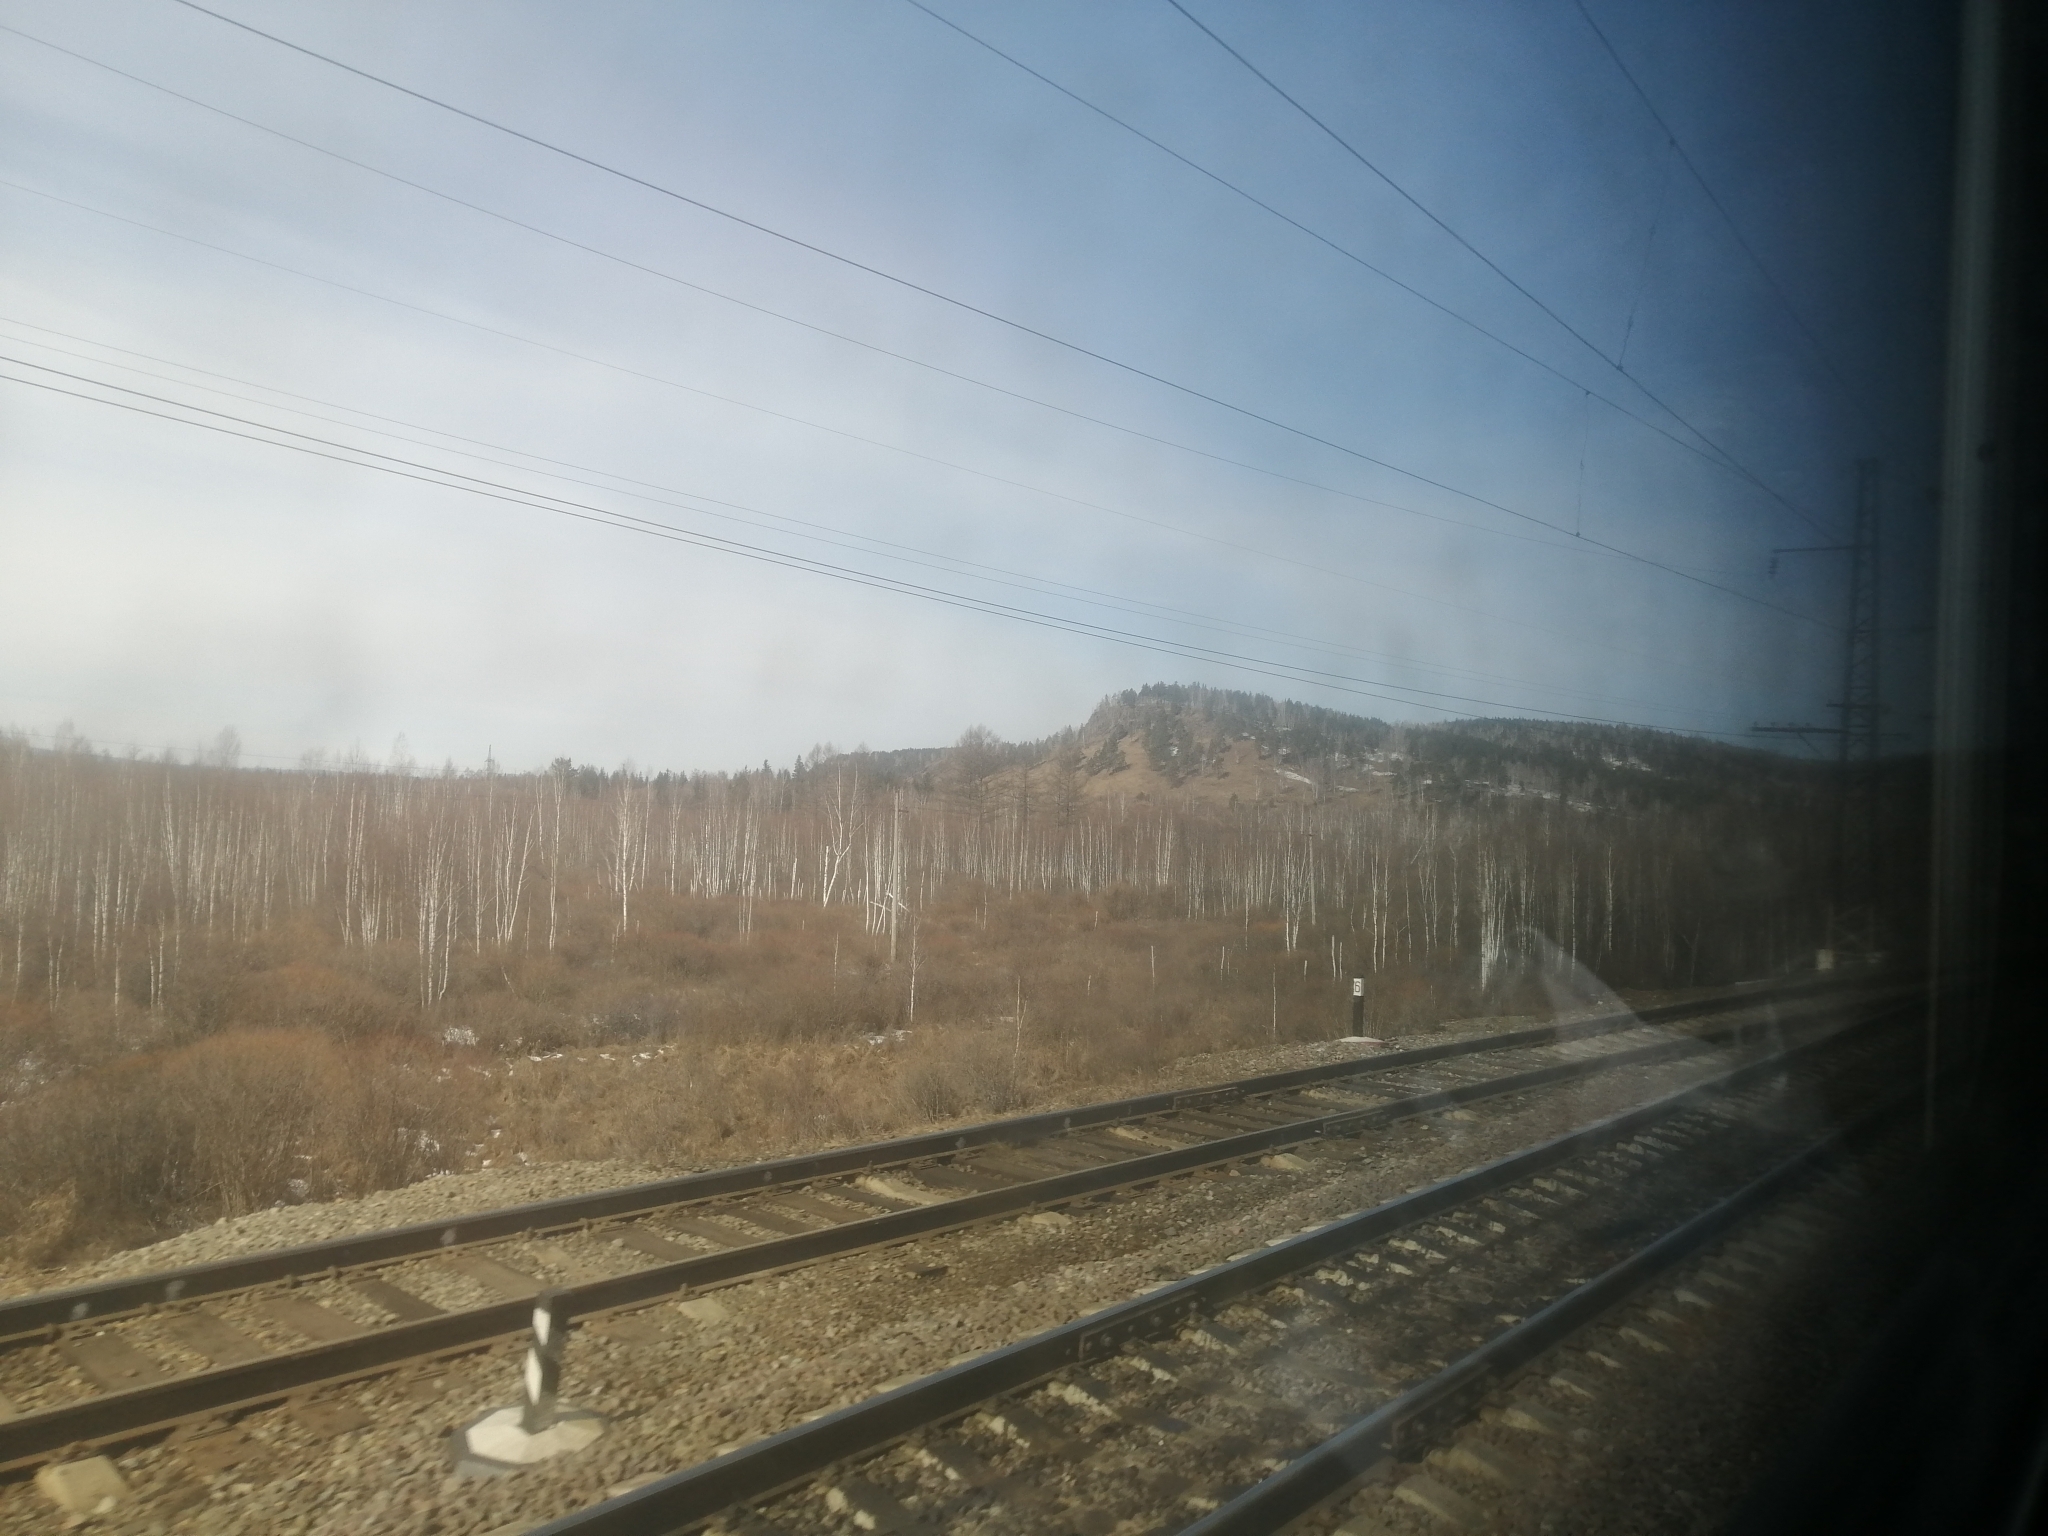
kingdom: Plantae
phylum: Tracheophyta
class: Pinopsida
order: Pinales
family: Pinaceae
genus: Pinus
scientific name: Pinus sylvestris
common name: Scots pine
